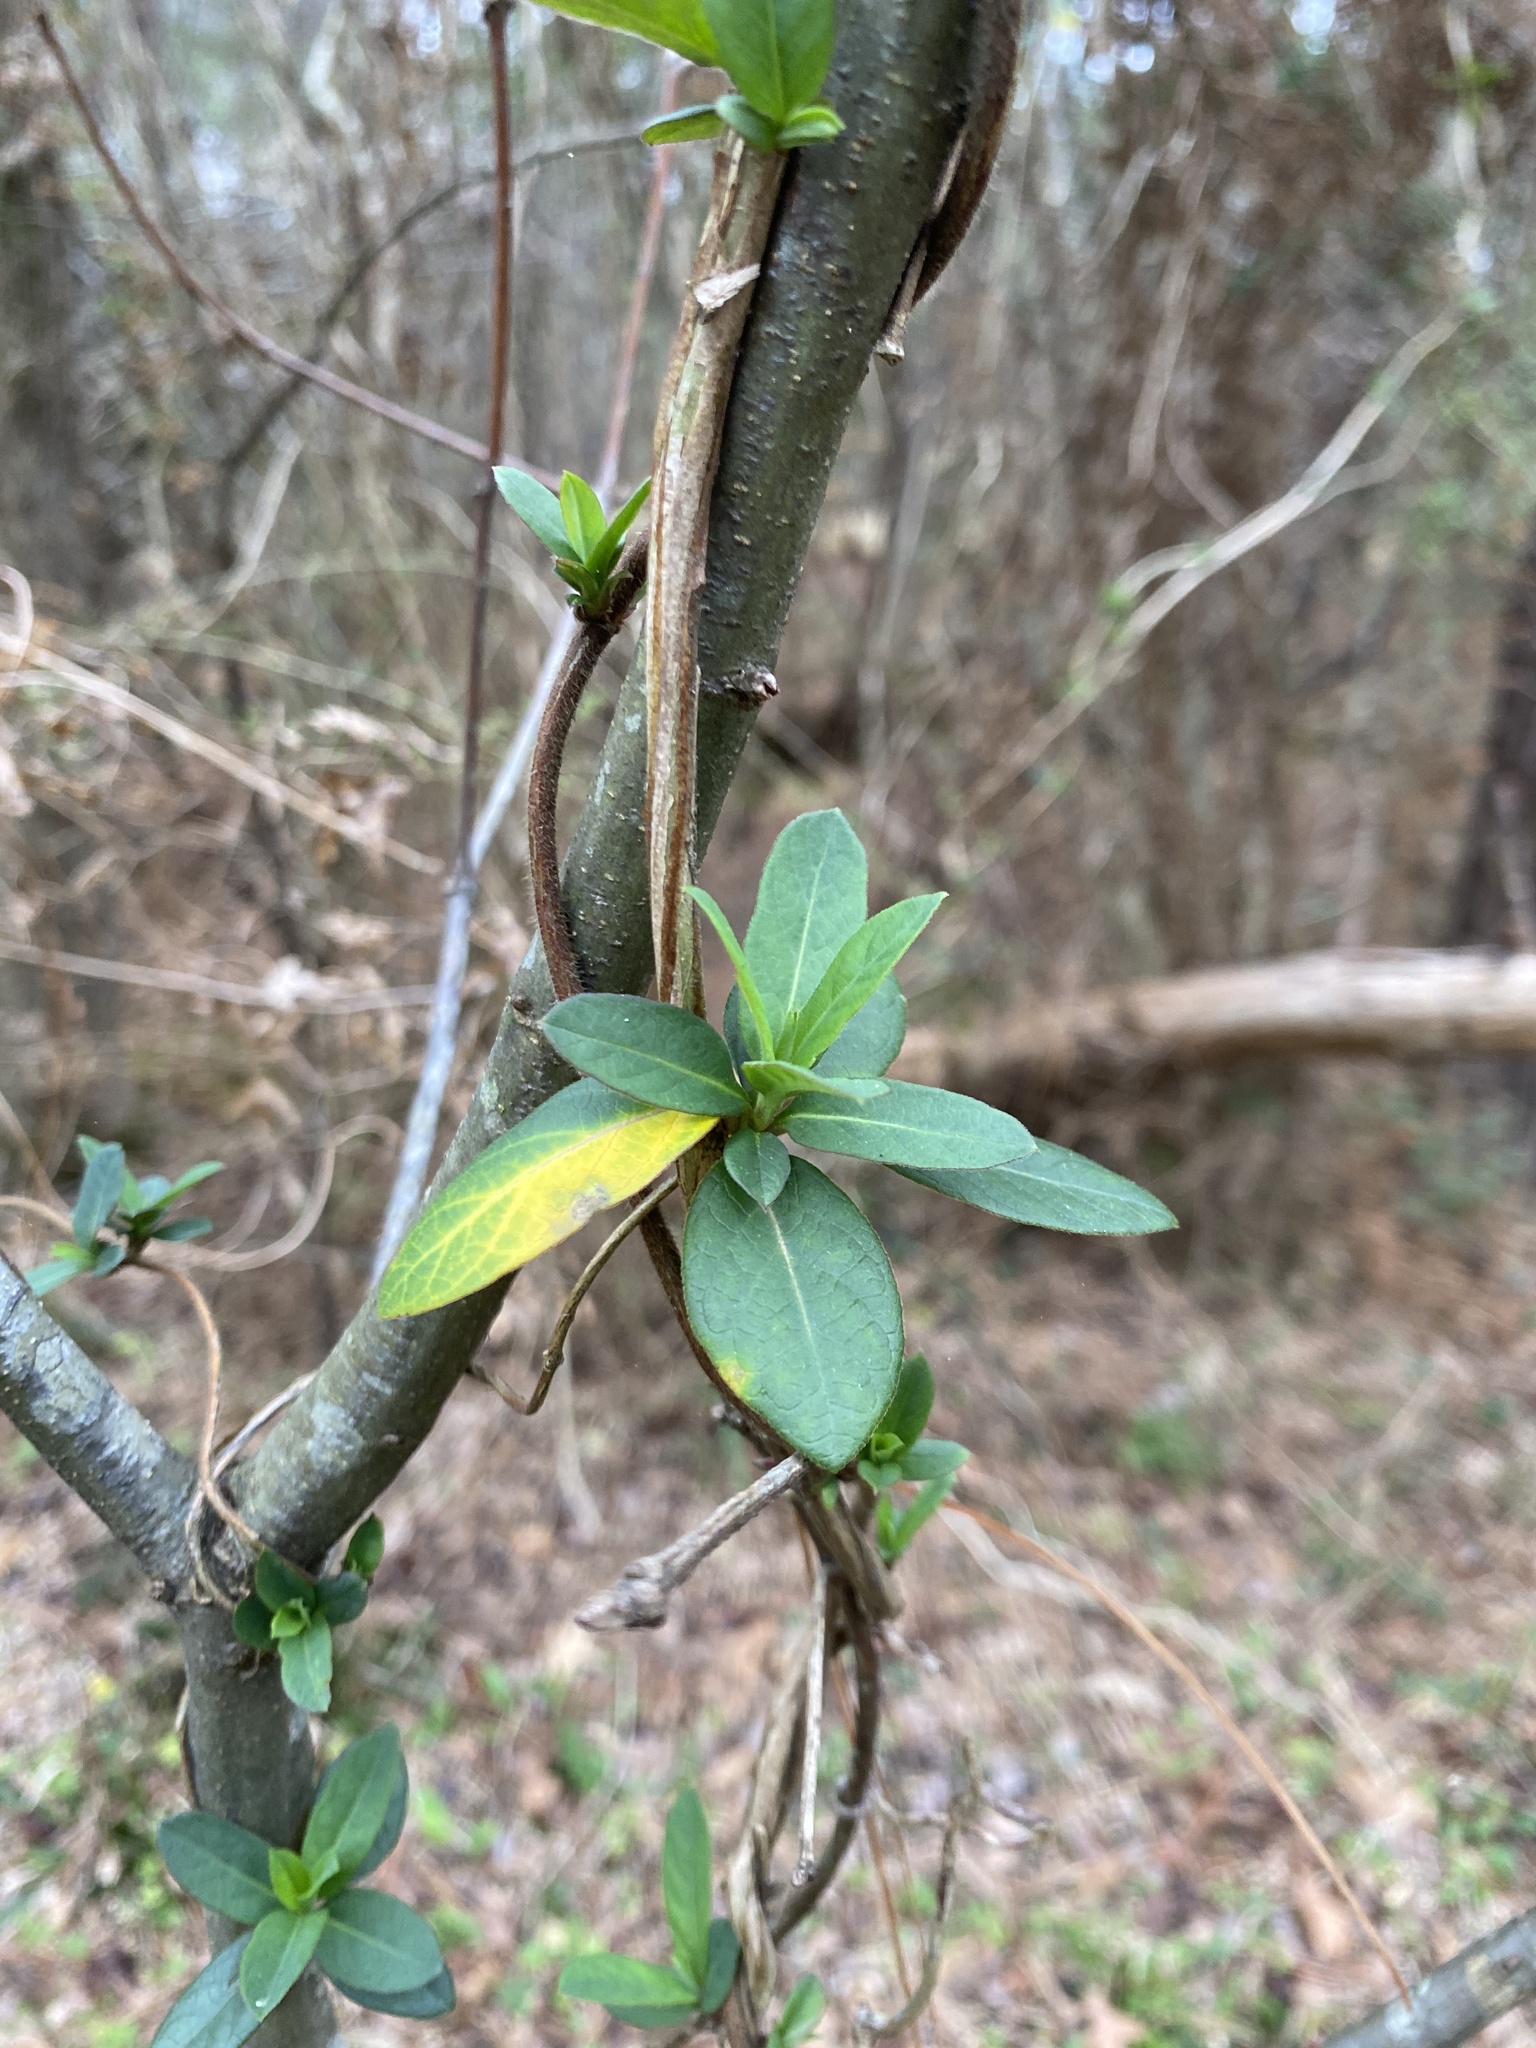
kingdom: Plantae
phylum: Tracheophyta
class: Magnoliopsida
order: Dipsacales
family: Caprifoliaceae
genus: Lonicera
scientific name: Lonicera japonica
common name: Japanese honeysuckle
